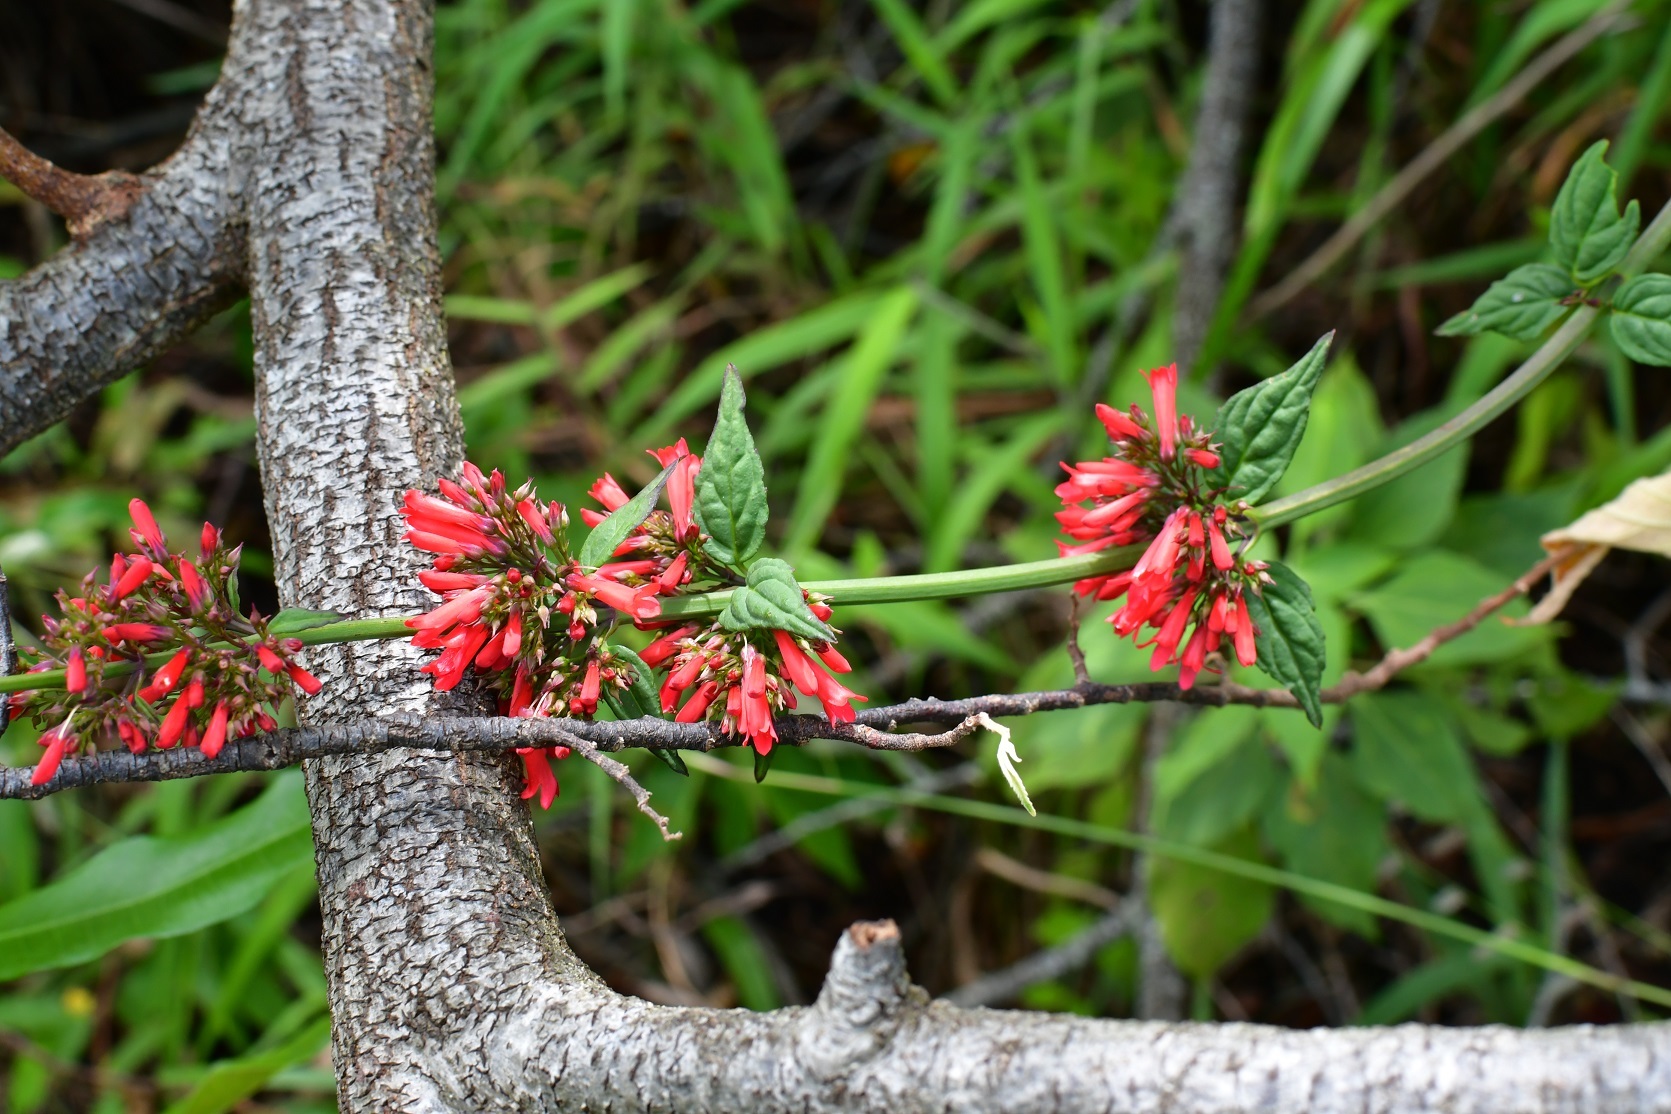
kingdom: Plantae
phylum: Tracheophyta
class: Magnoliopsida
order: Lamiales
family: Plantaginaceae
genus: Russelia
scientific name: Russelia verticillata
